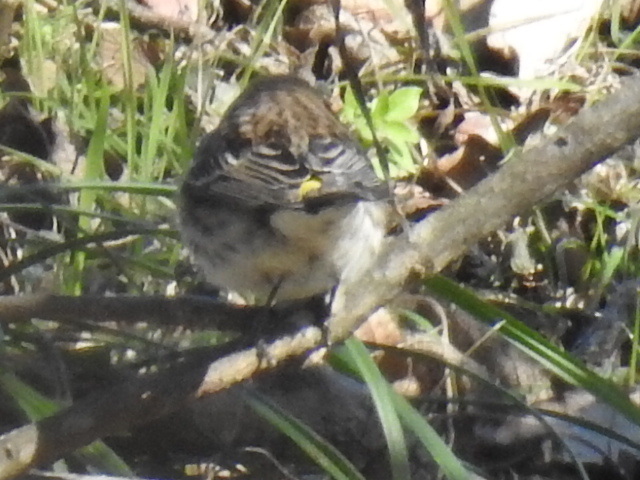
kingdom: Animalia
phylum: Chordata
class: Aves
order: Passeriformes
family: Parulidae
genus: Setophaga
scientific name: Setophaga coronata
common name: Myrtle warbler
